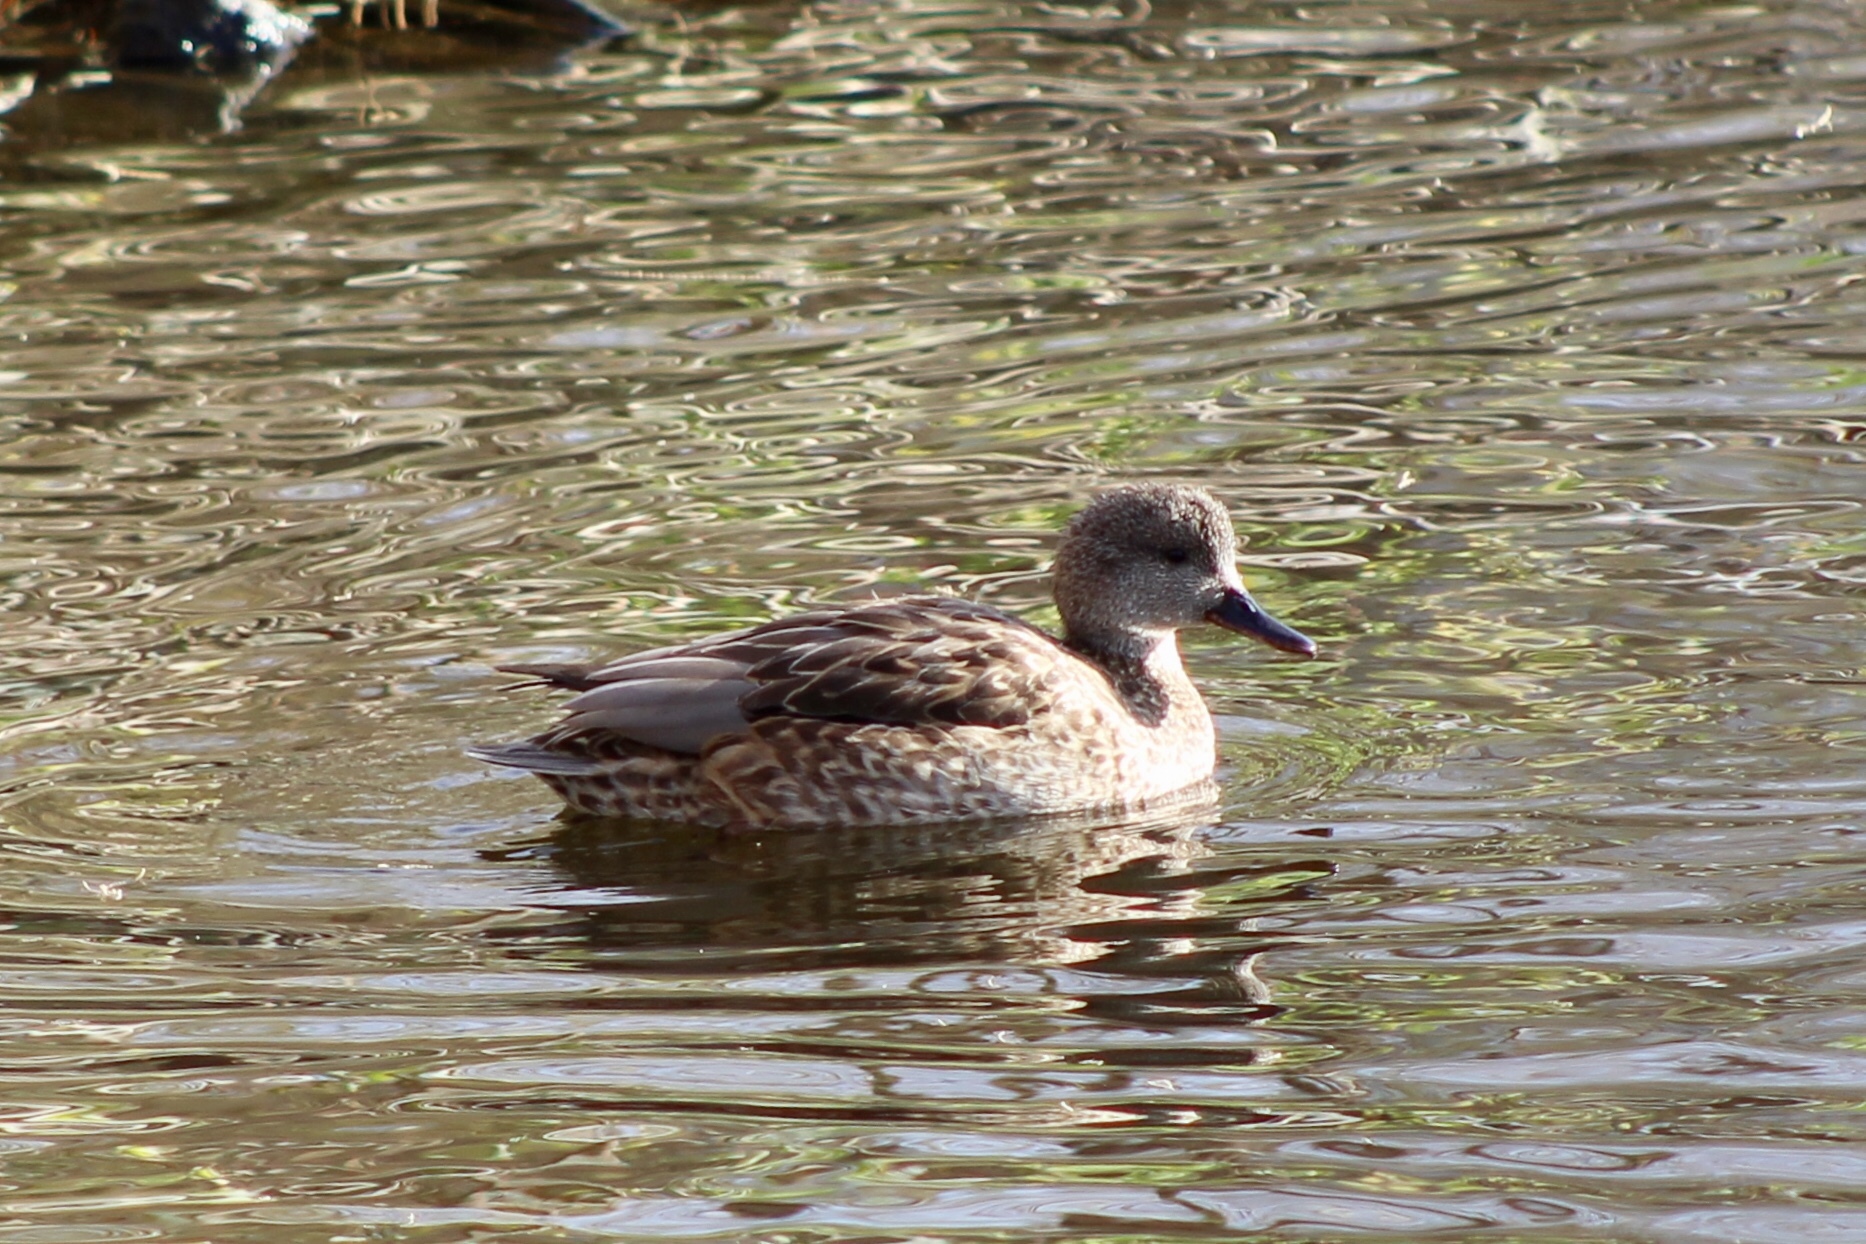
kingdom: Animalia
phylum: Chordata
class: Aves
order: Anseriformes
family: Anatidae
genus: Mareca
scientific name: Mareca strepera
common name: Gadwall
